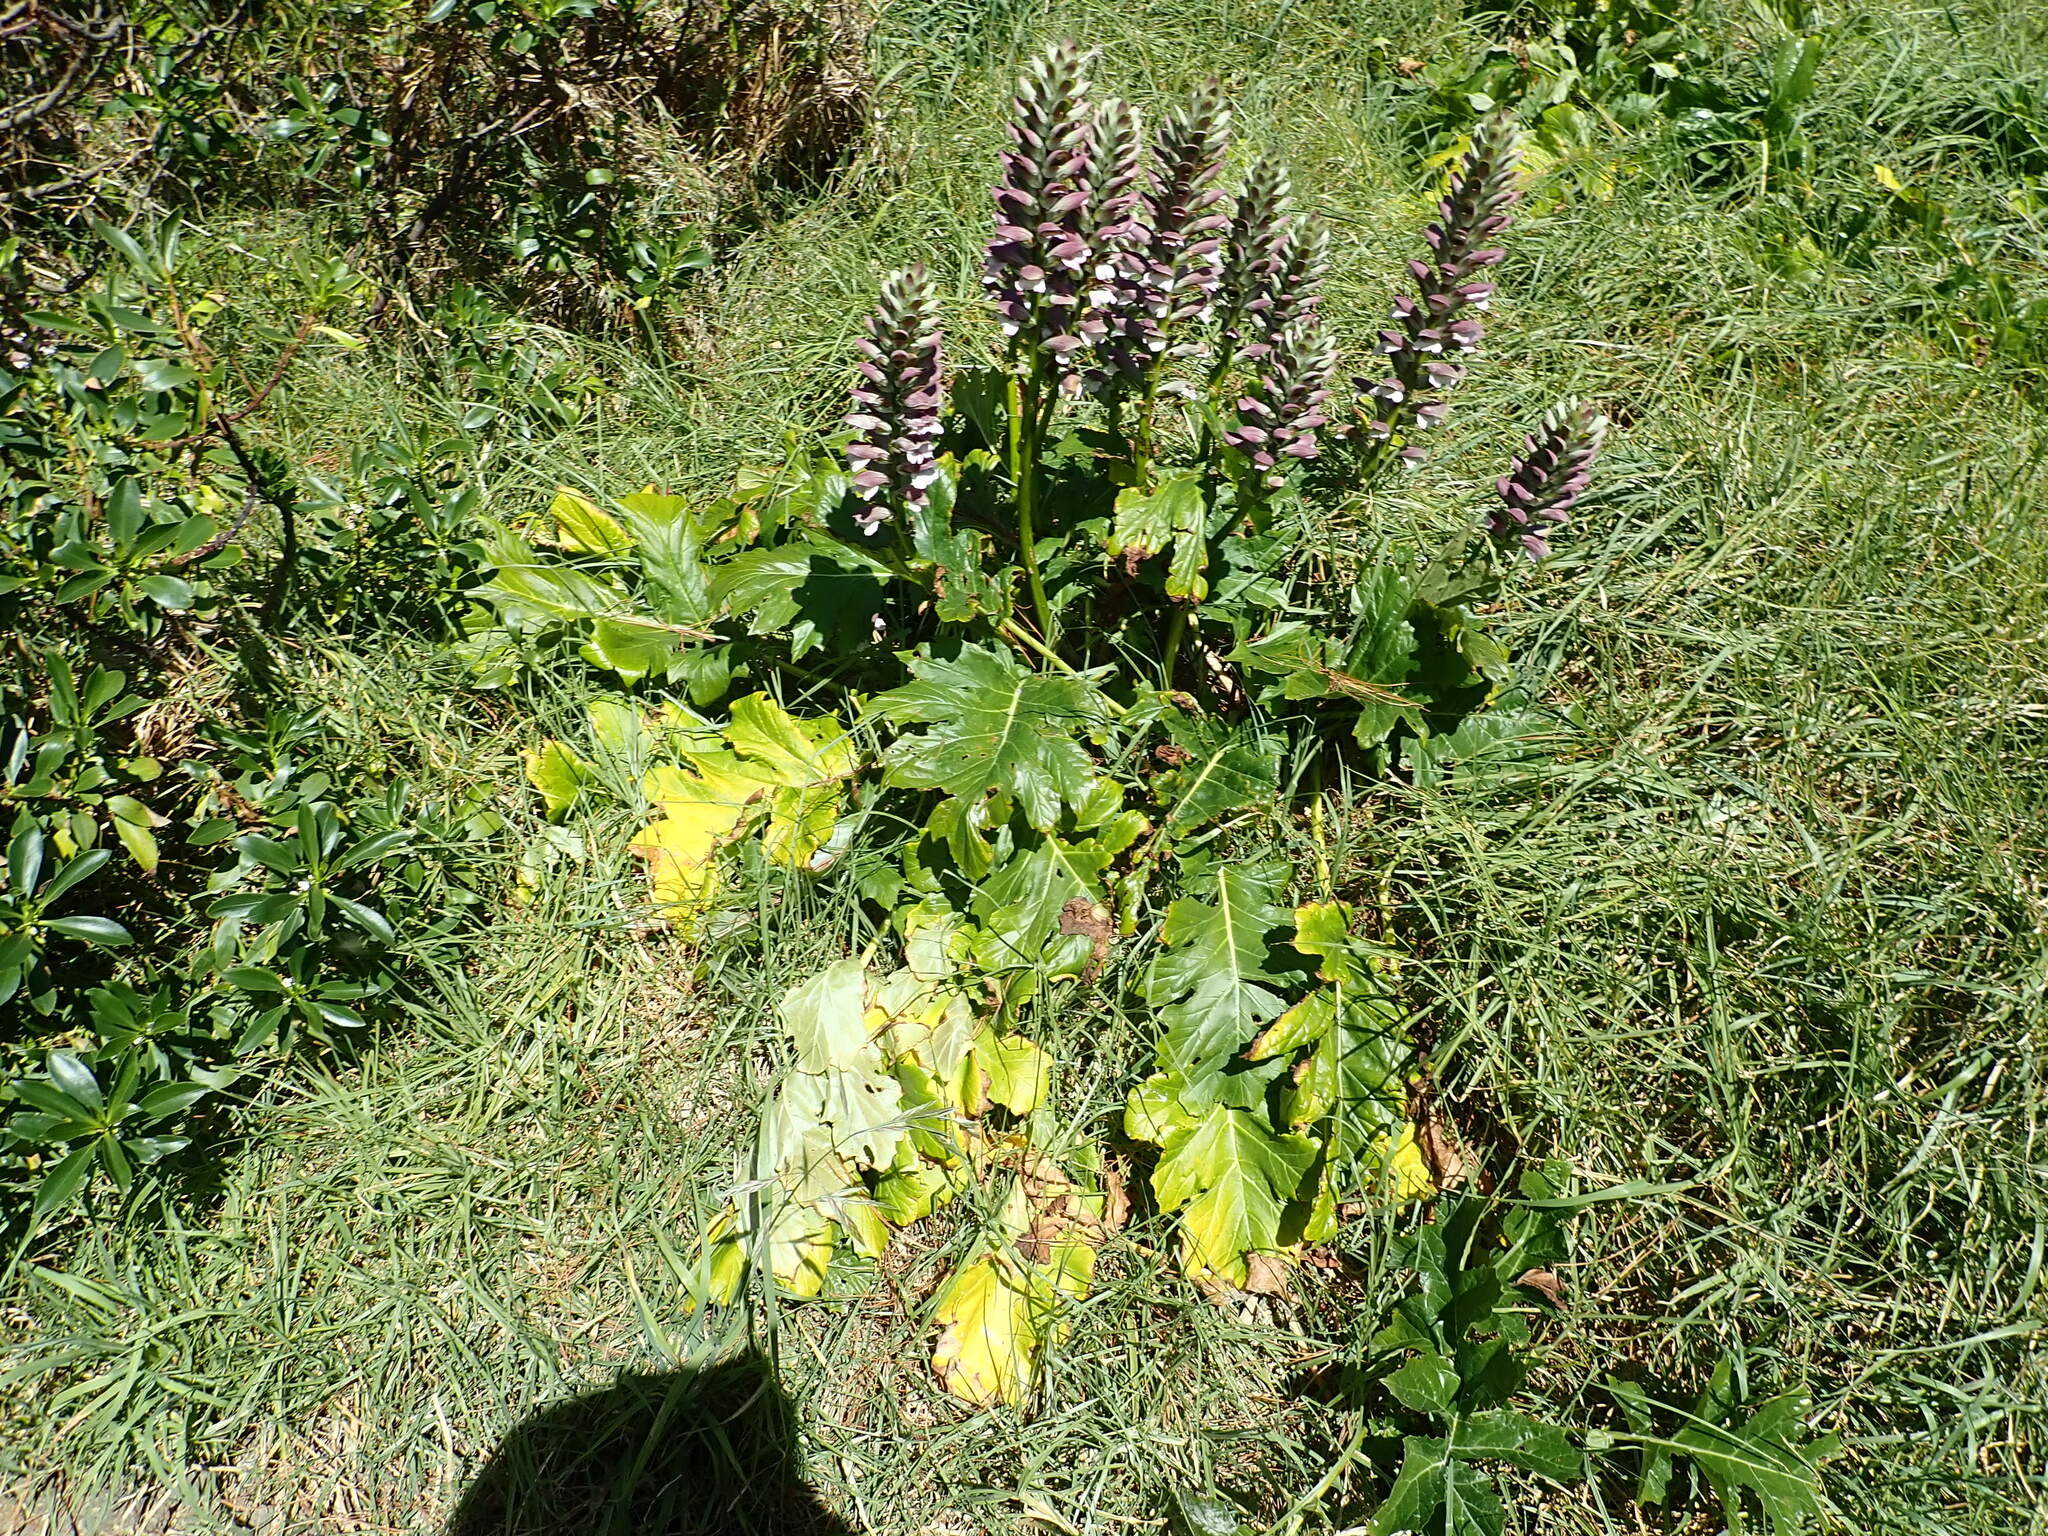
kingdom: Plantae
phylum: Tracheophyta
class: Magnoliopsida
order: Lamiales
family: Acanthaceae
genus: Acanthus
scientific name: Acanthus mollis
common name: Bear's-breech
